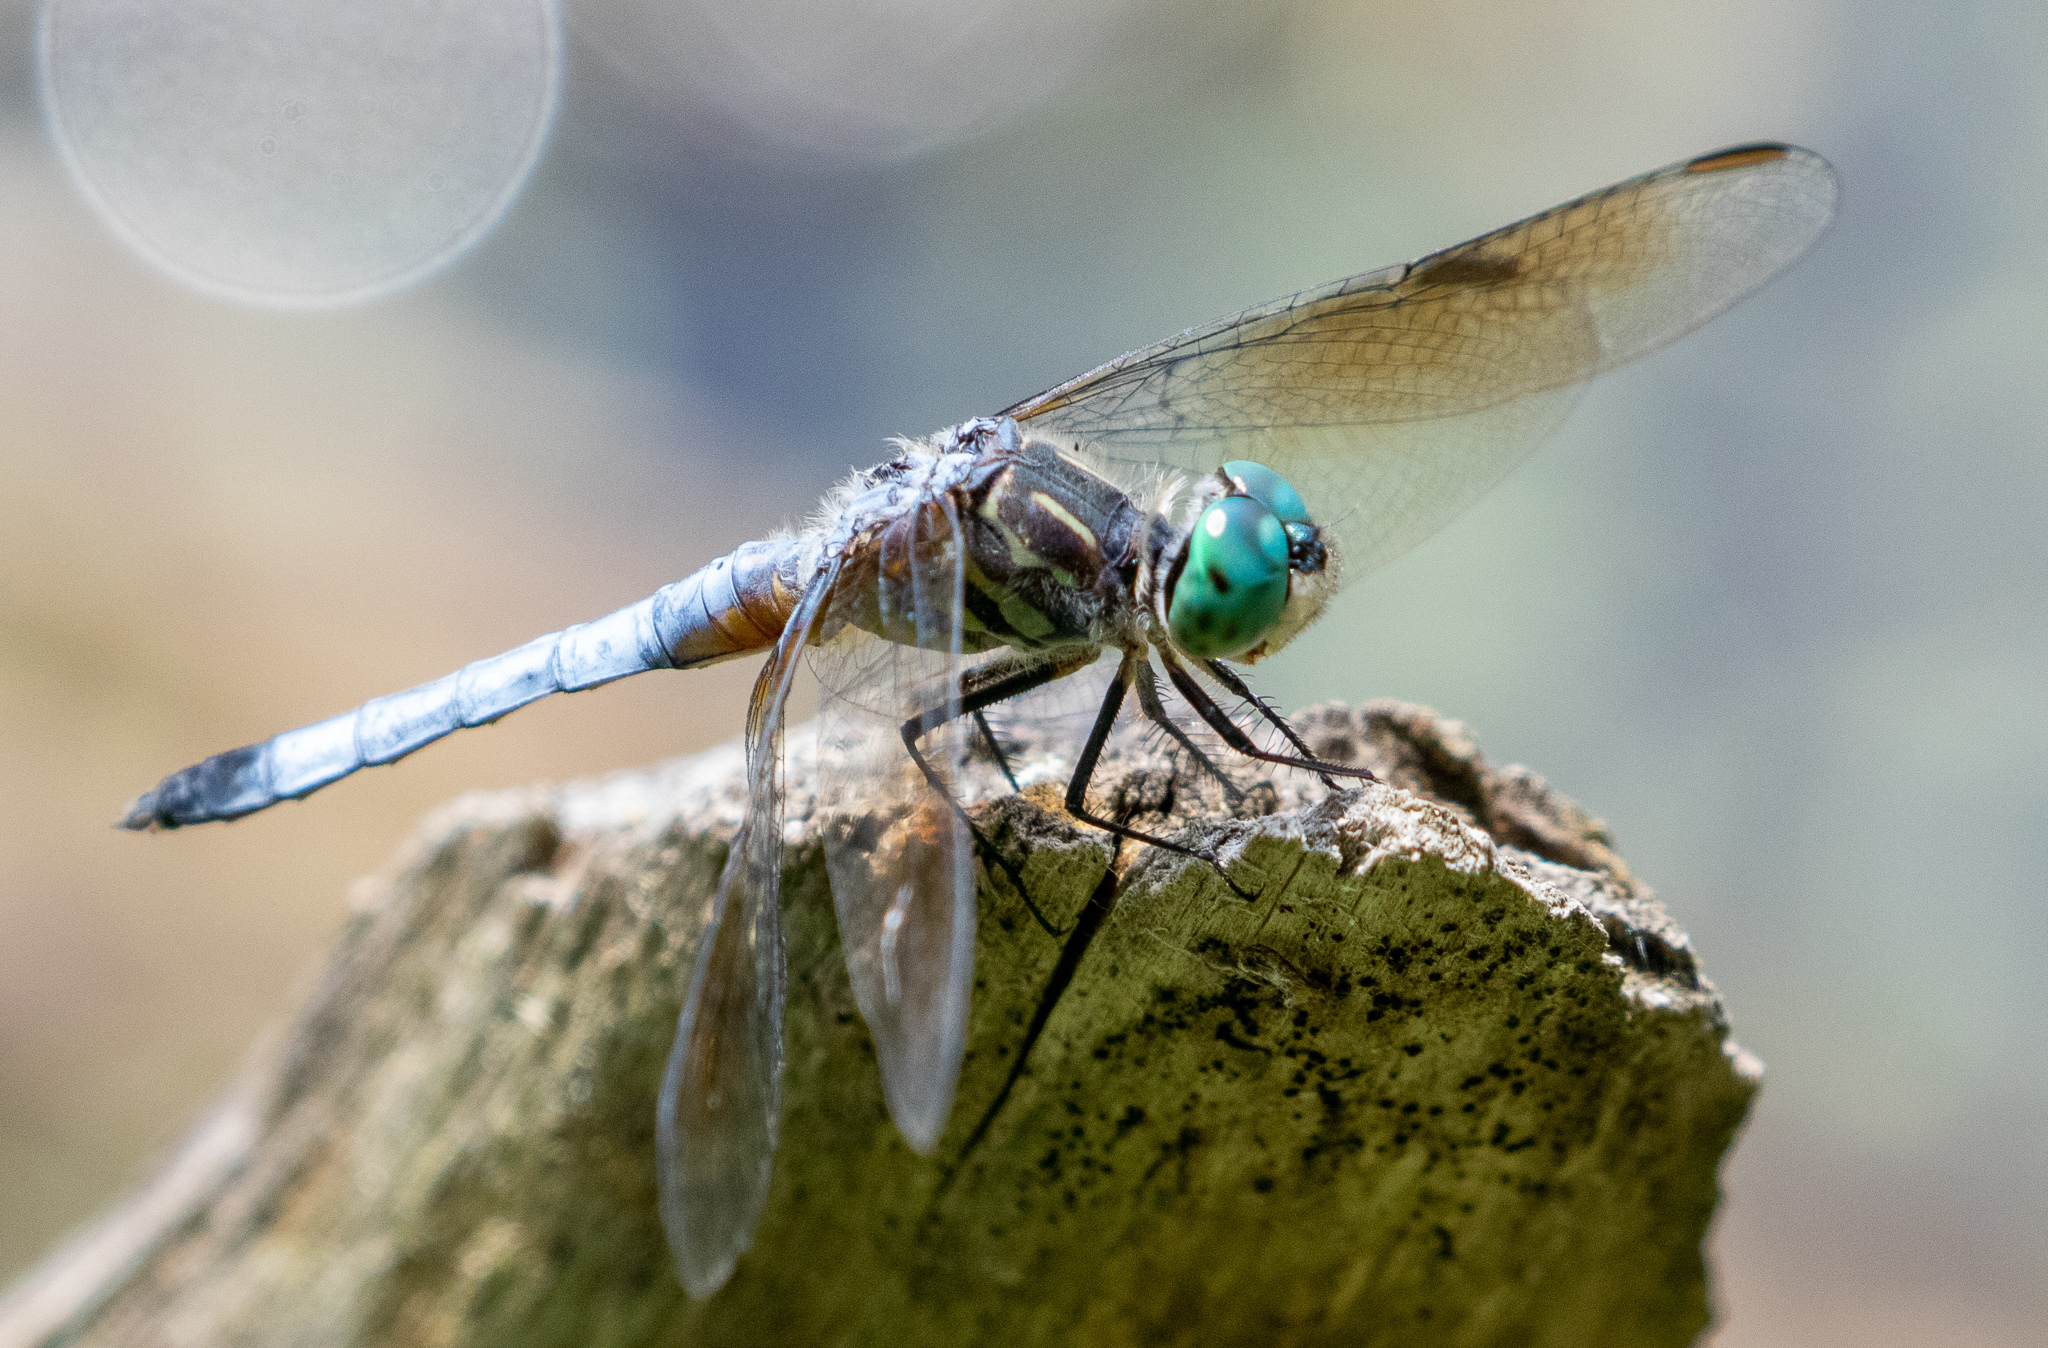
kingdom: Animalia
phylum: Arthropoda
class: Insecta
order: Odonata
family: Libellulidae
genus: Pachydiplax
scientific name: Pachydiplax longipennis
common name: Blue dasher
